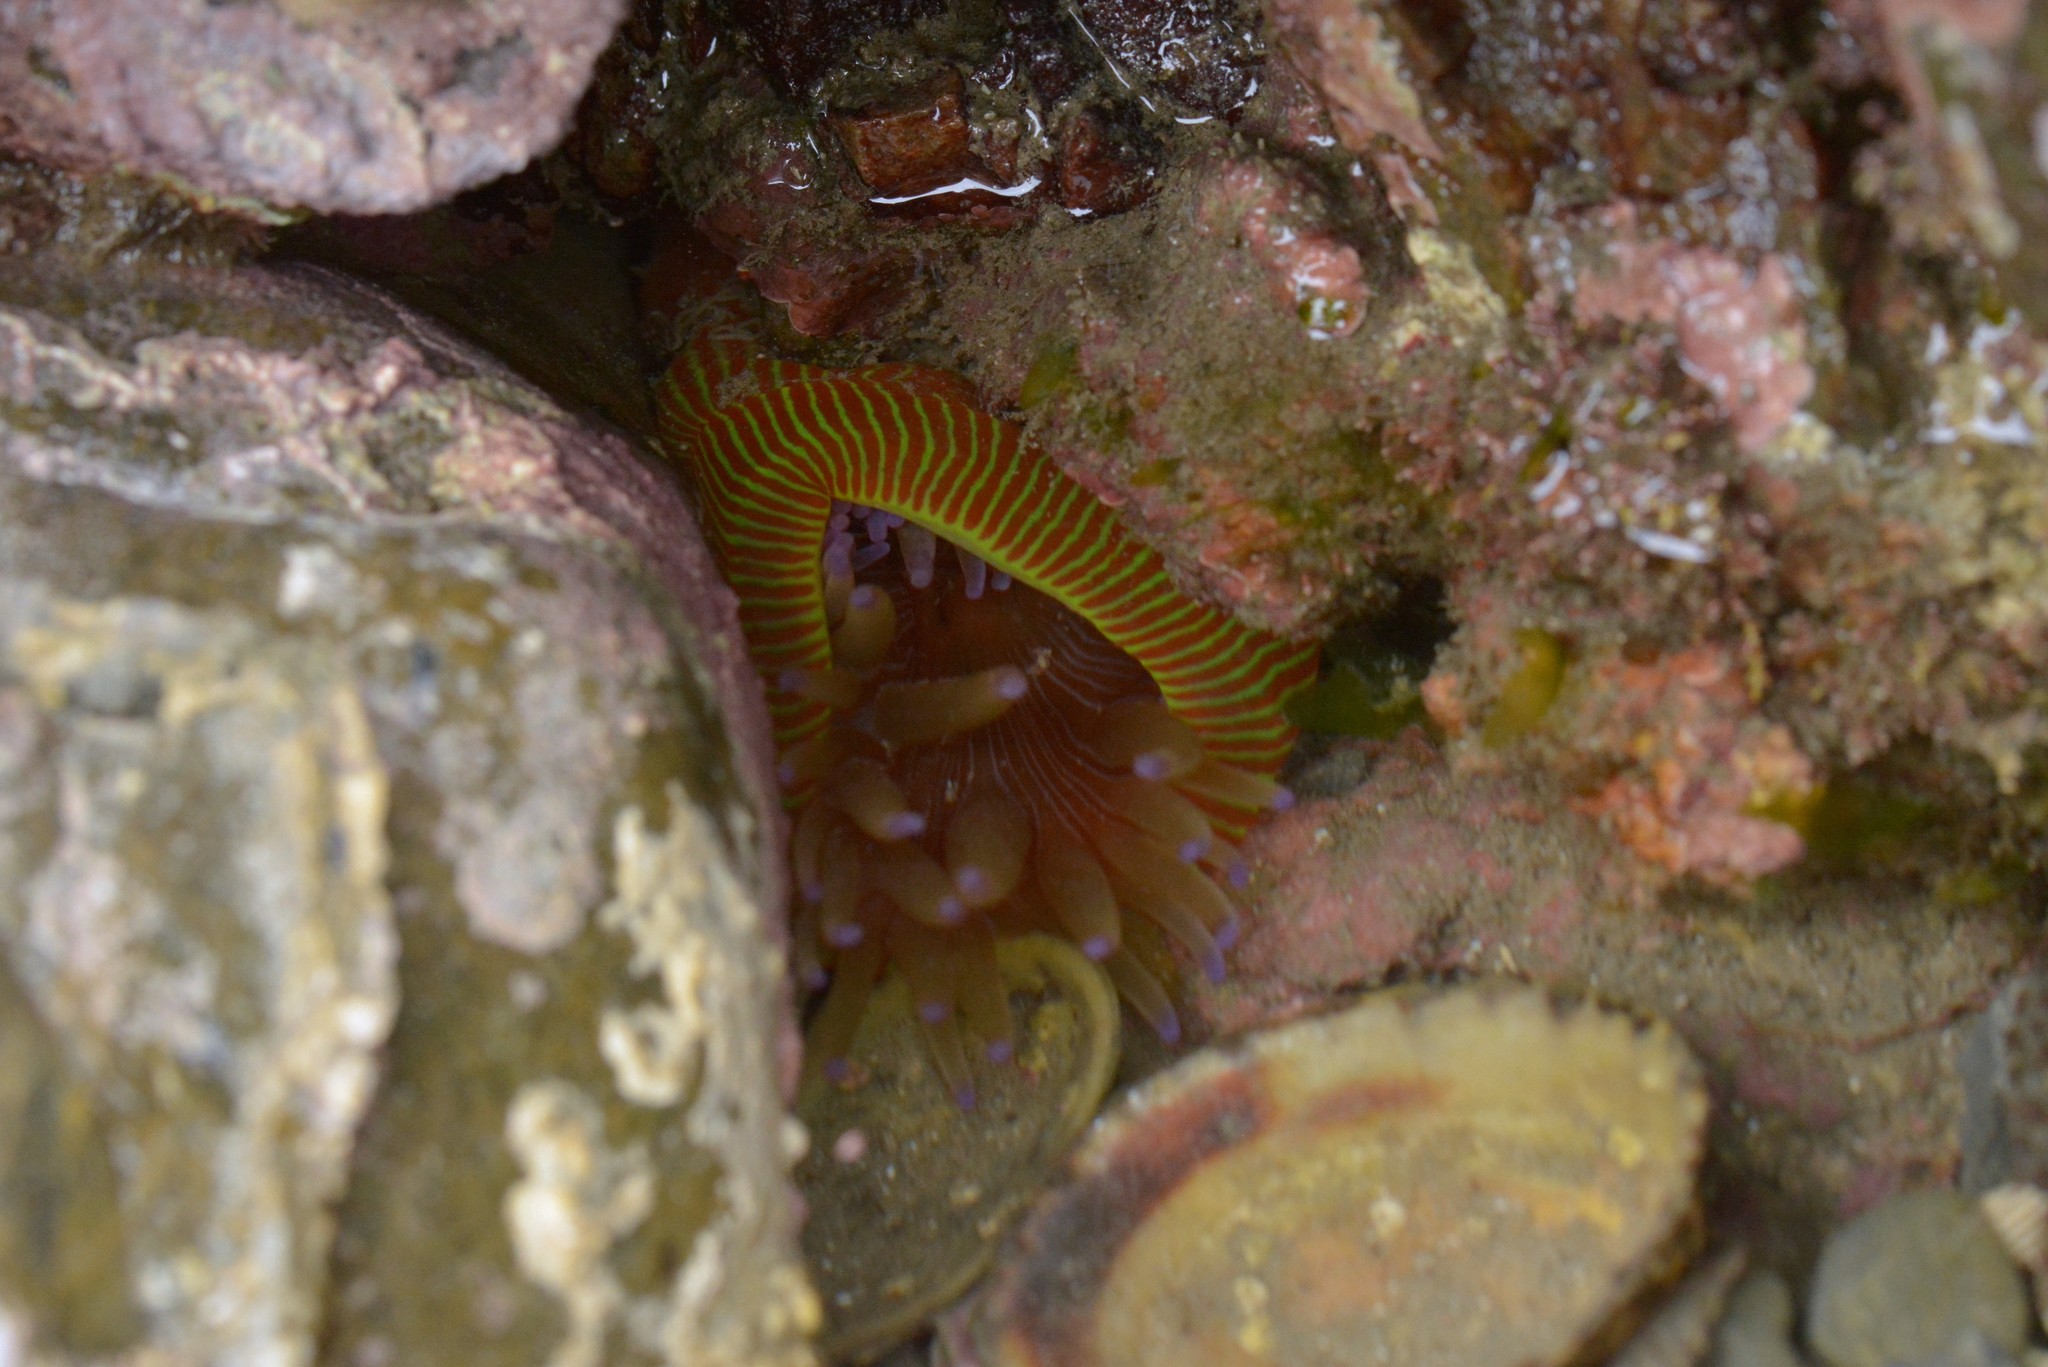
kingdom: Animalia
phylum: Cnidaria
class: Anthozoa
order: Actiniaria
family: Actiniidae
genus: Epiactis
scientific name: Epiactis thompsoni
